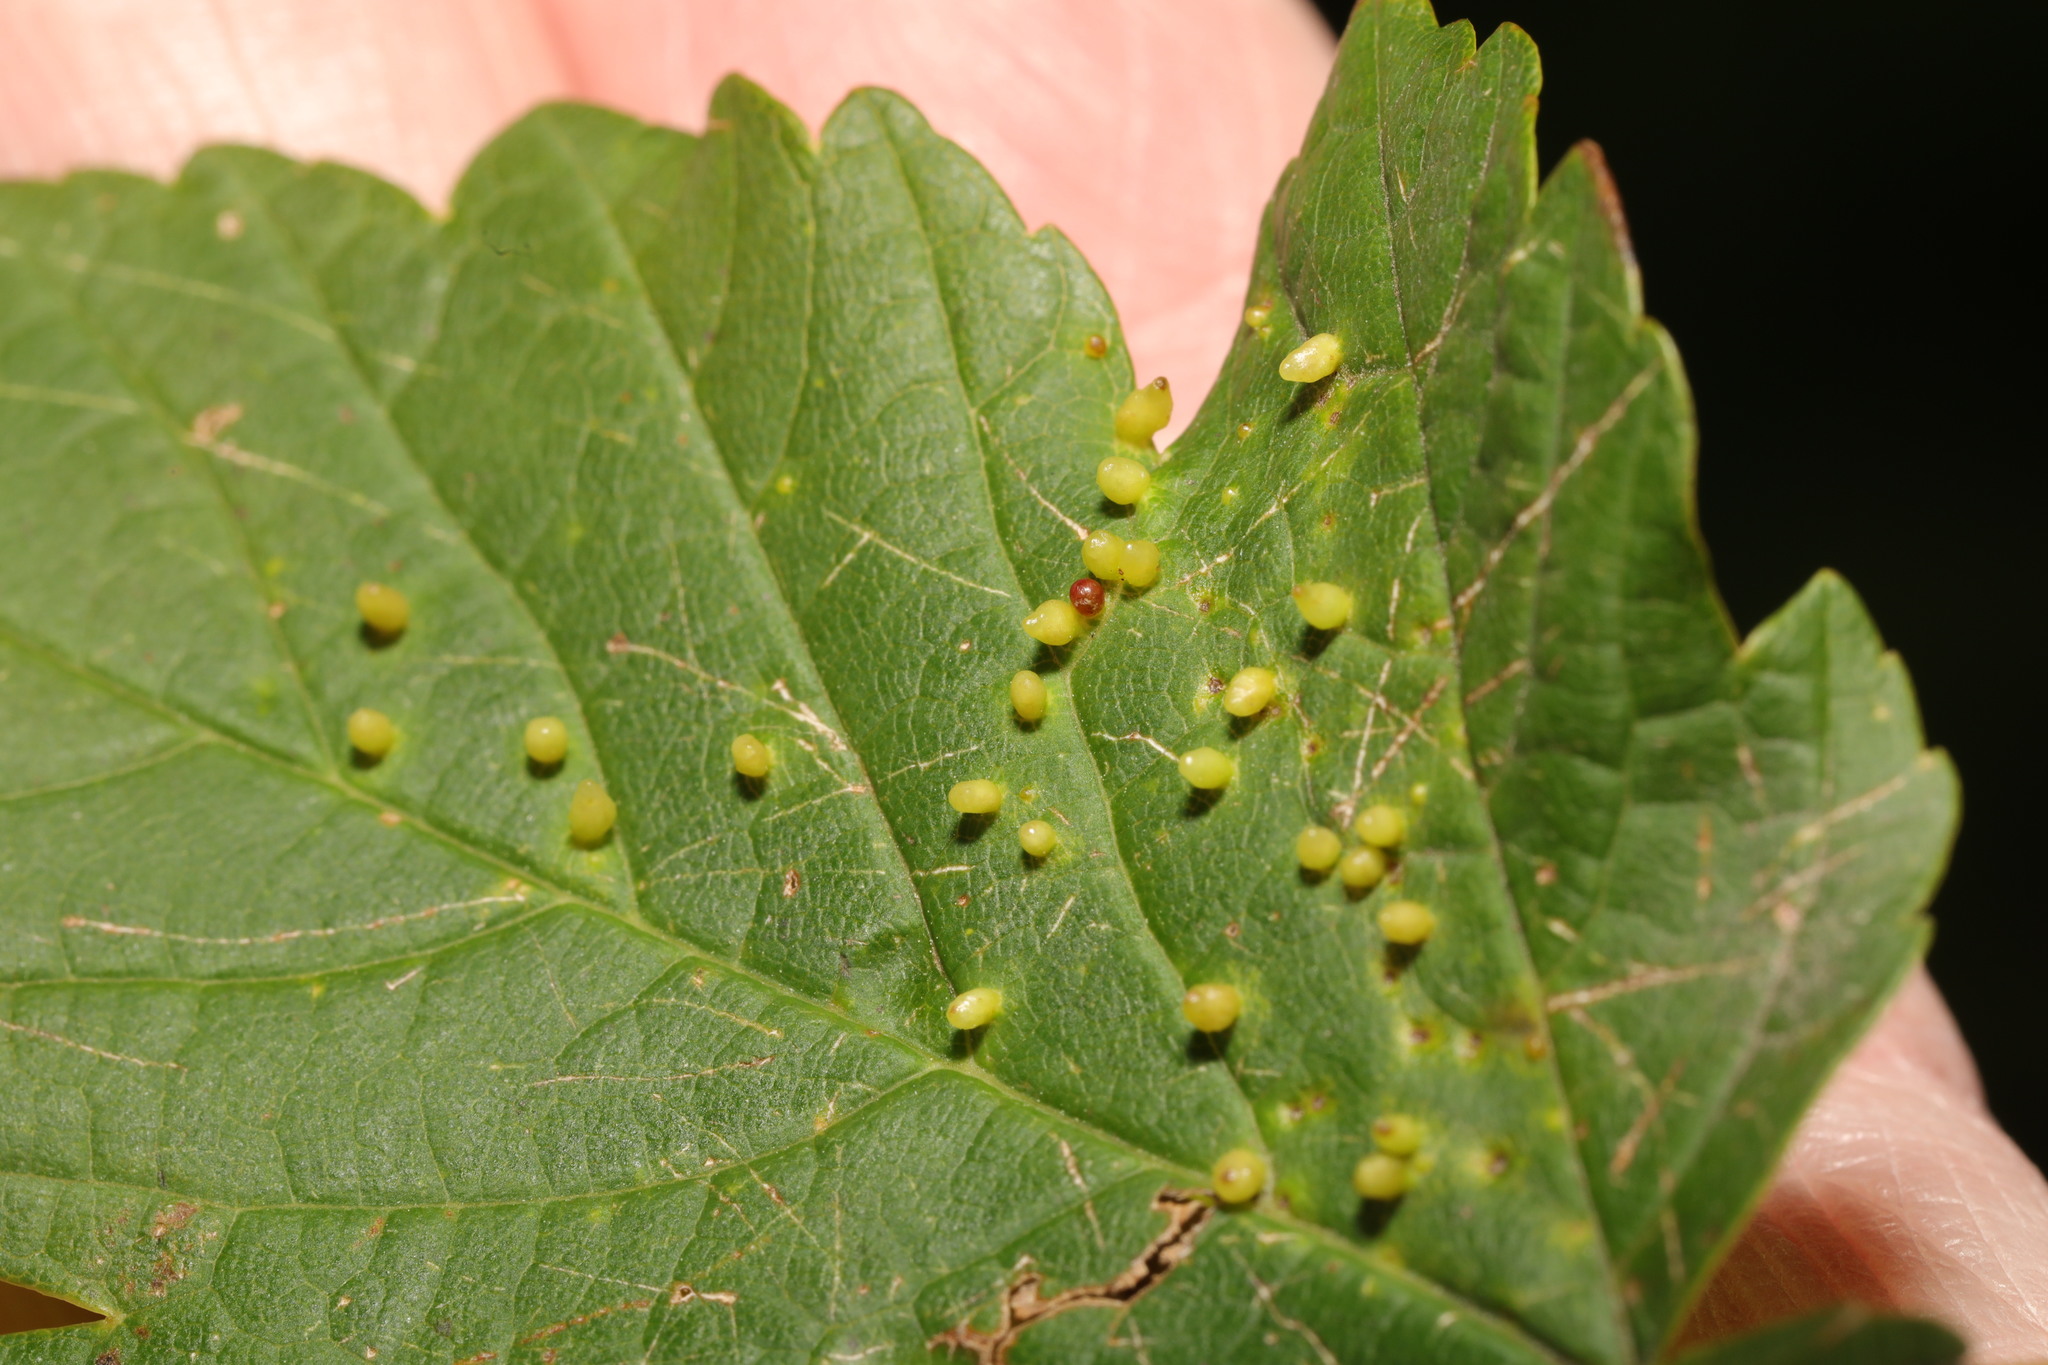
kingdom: Animalia
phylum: Arthropoda
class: Arachnida
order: Trombidiformes
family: Eriophyidae
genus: Aceria
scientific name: Aceria cephaloneus
